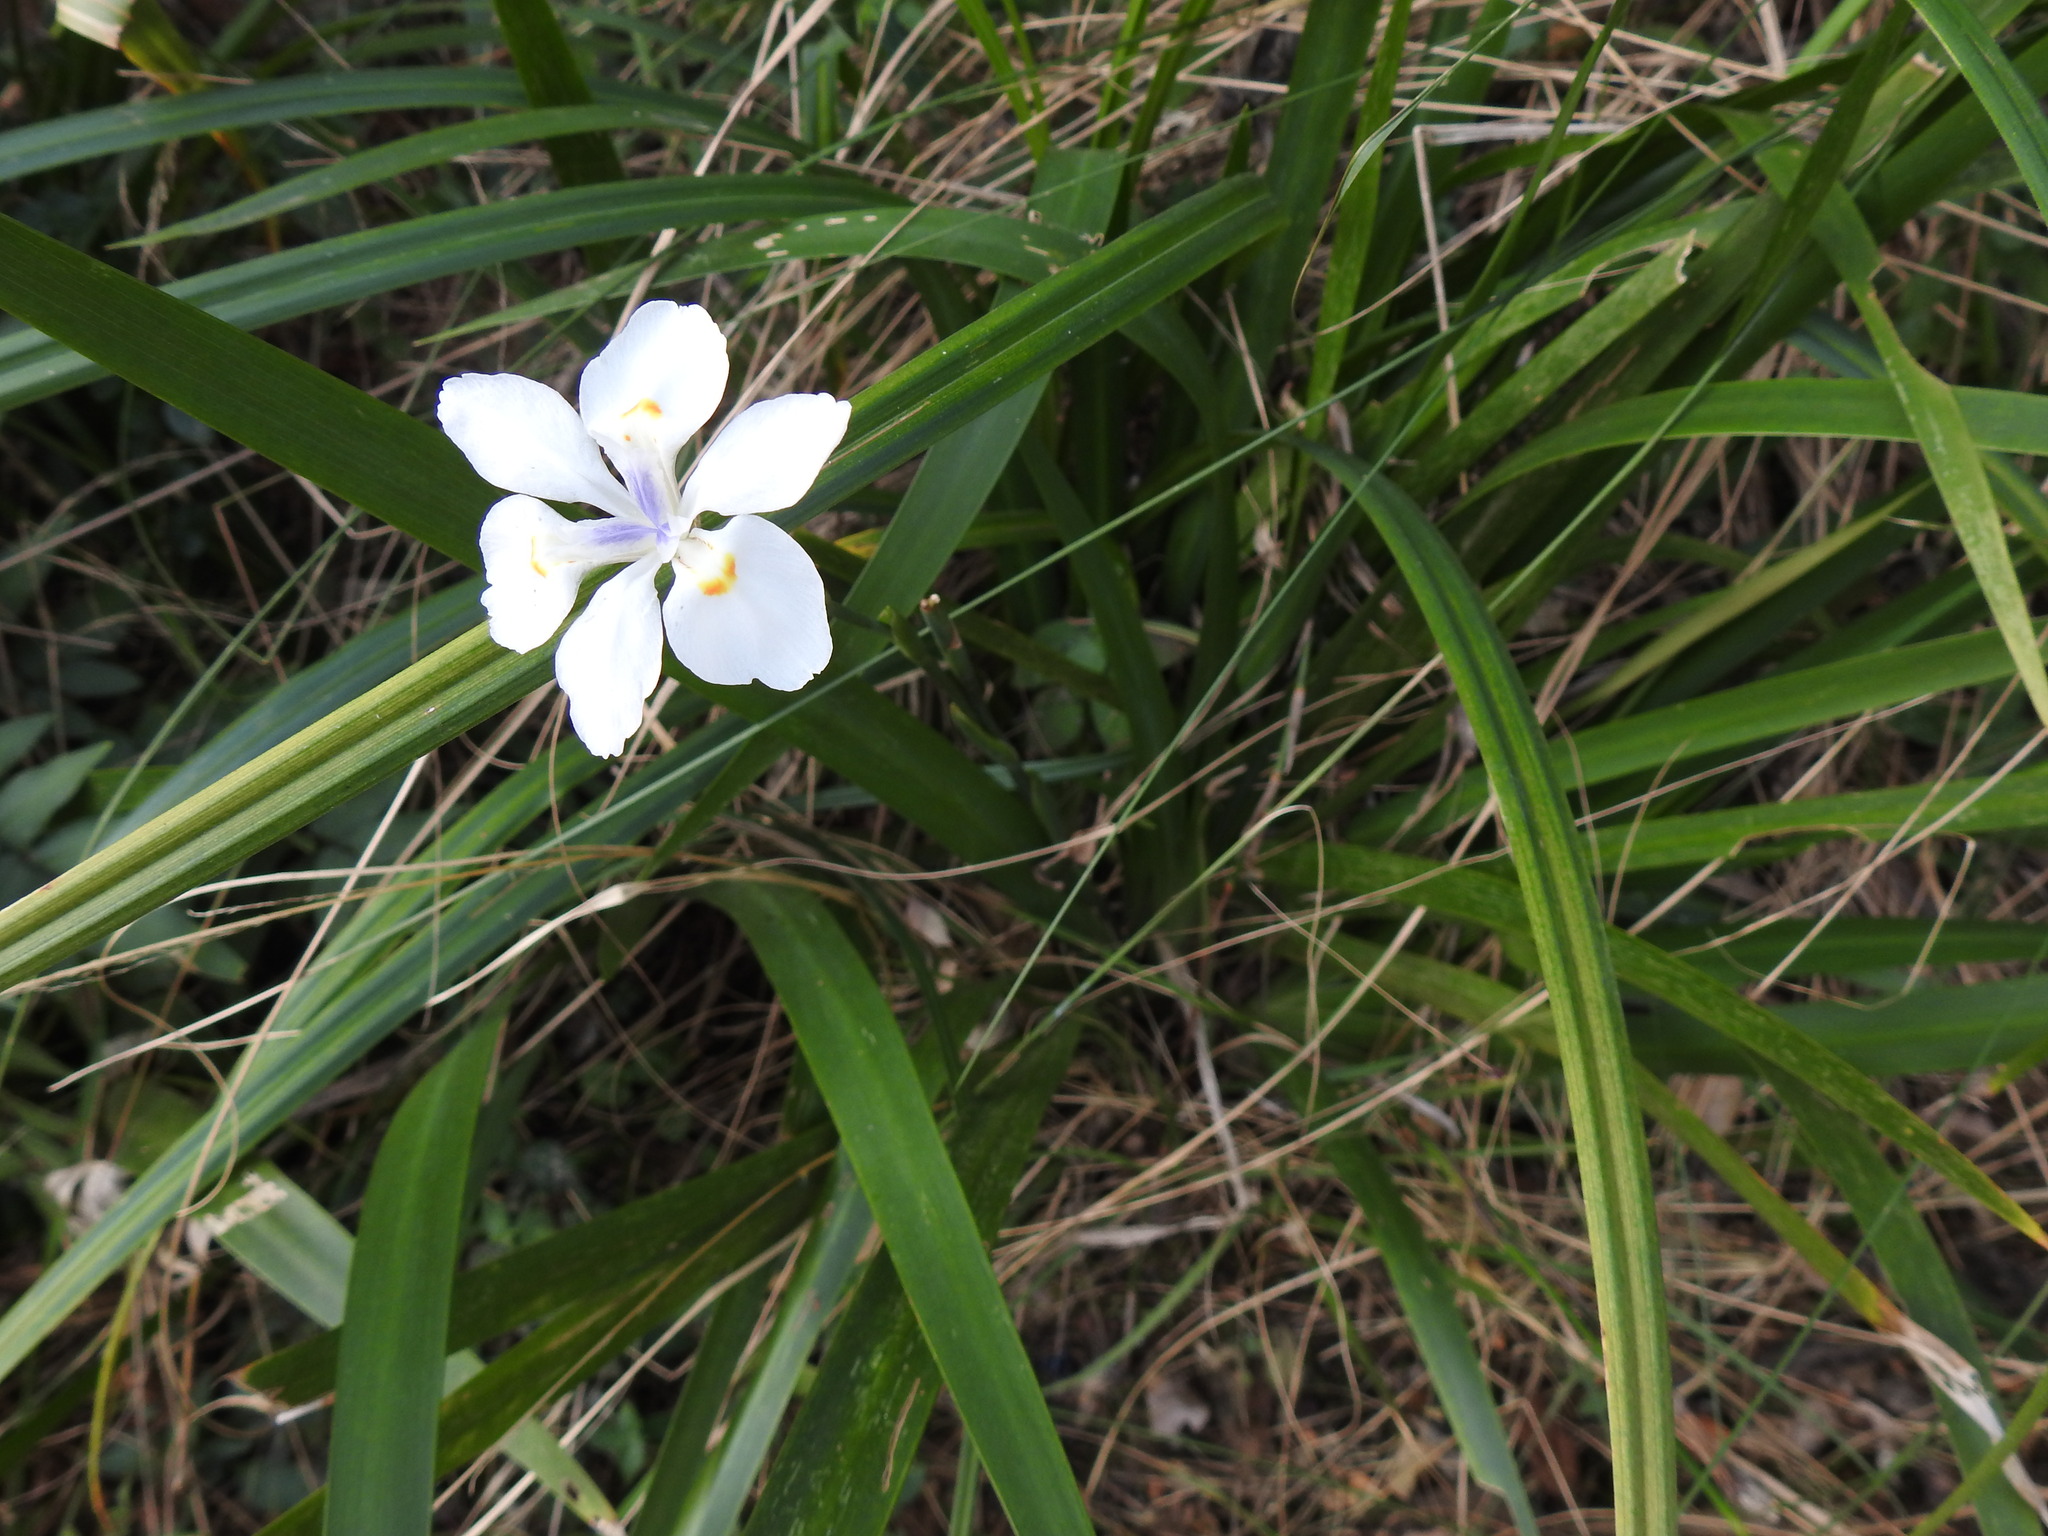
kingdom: Plantae
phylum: Tracheophyta
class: Liliopsida
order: Asparagales
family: Iridaceae
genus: Dietes
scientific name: Dietes iridioides
